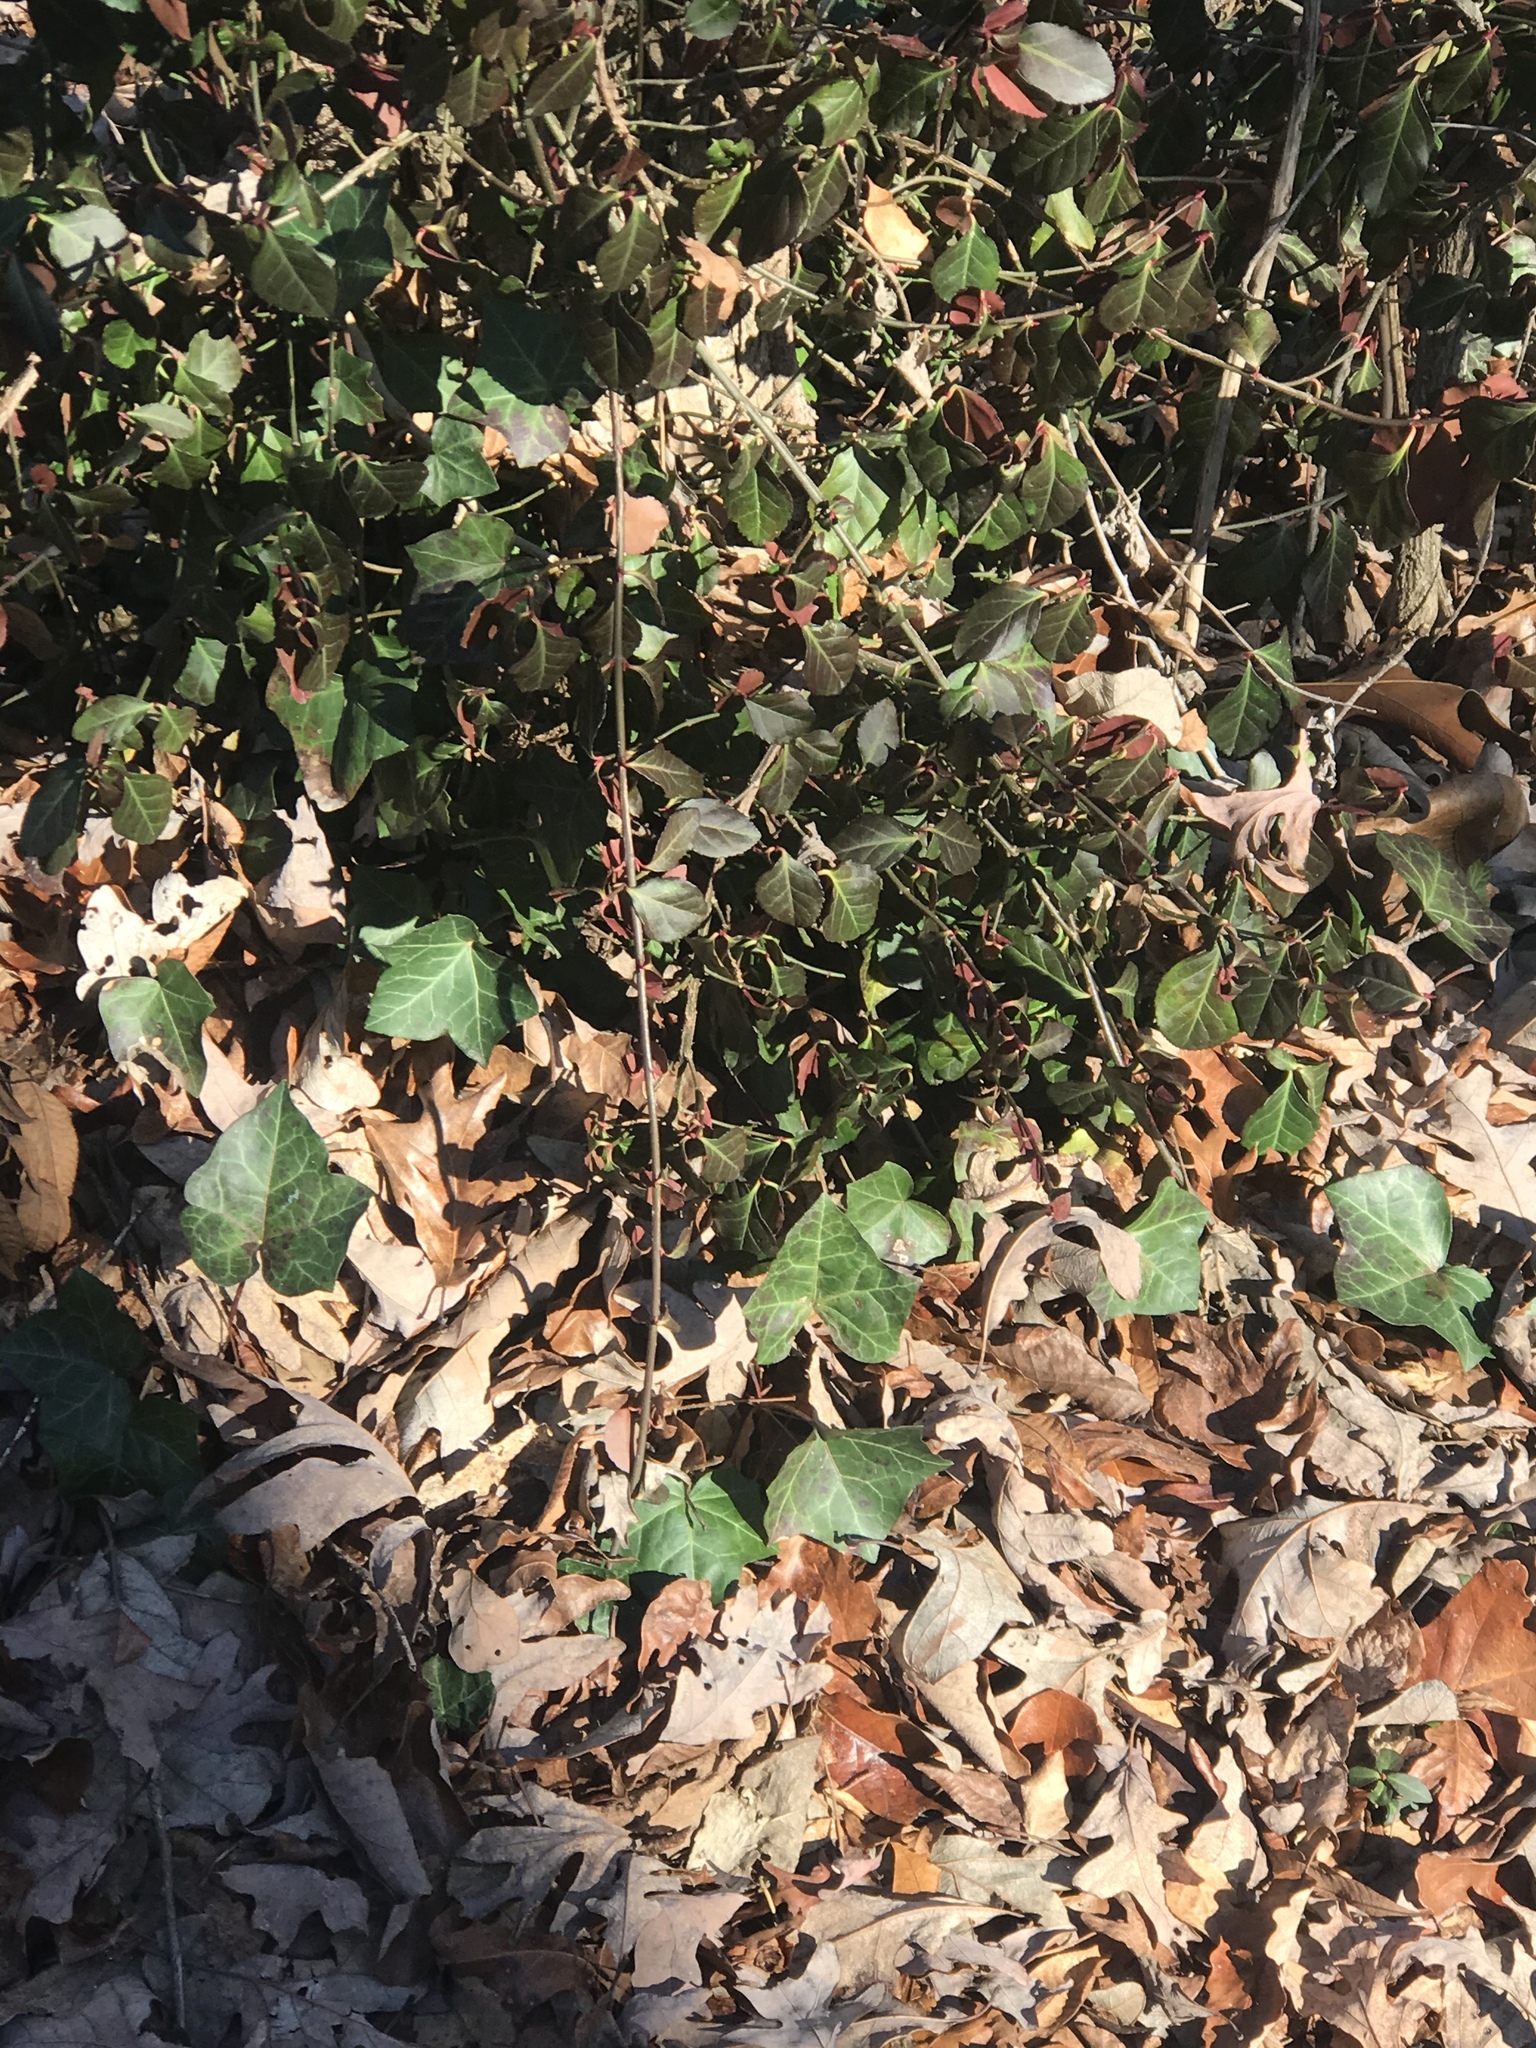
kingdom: Plantae
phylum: Tracheophyta
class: Magnoliopsida
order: Apiales
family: Araliaceae
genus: Hedera
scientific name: Hedera helix
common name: Ivy
